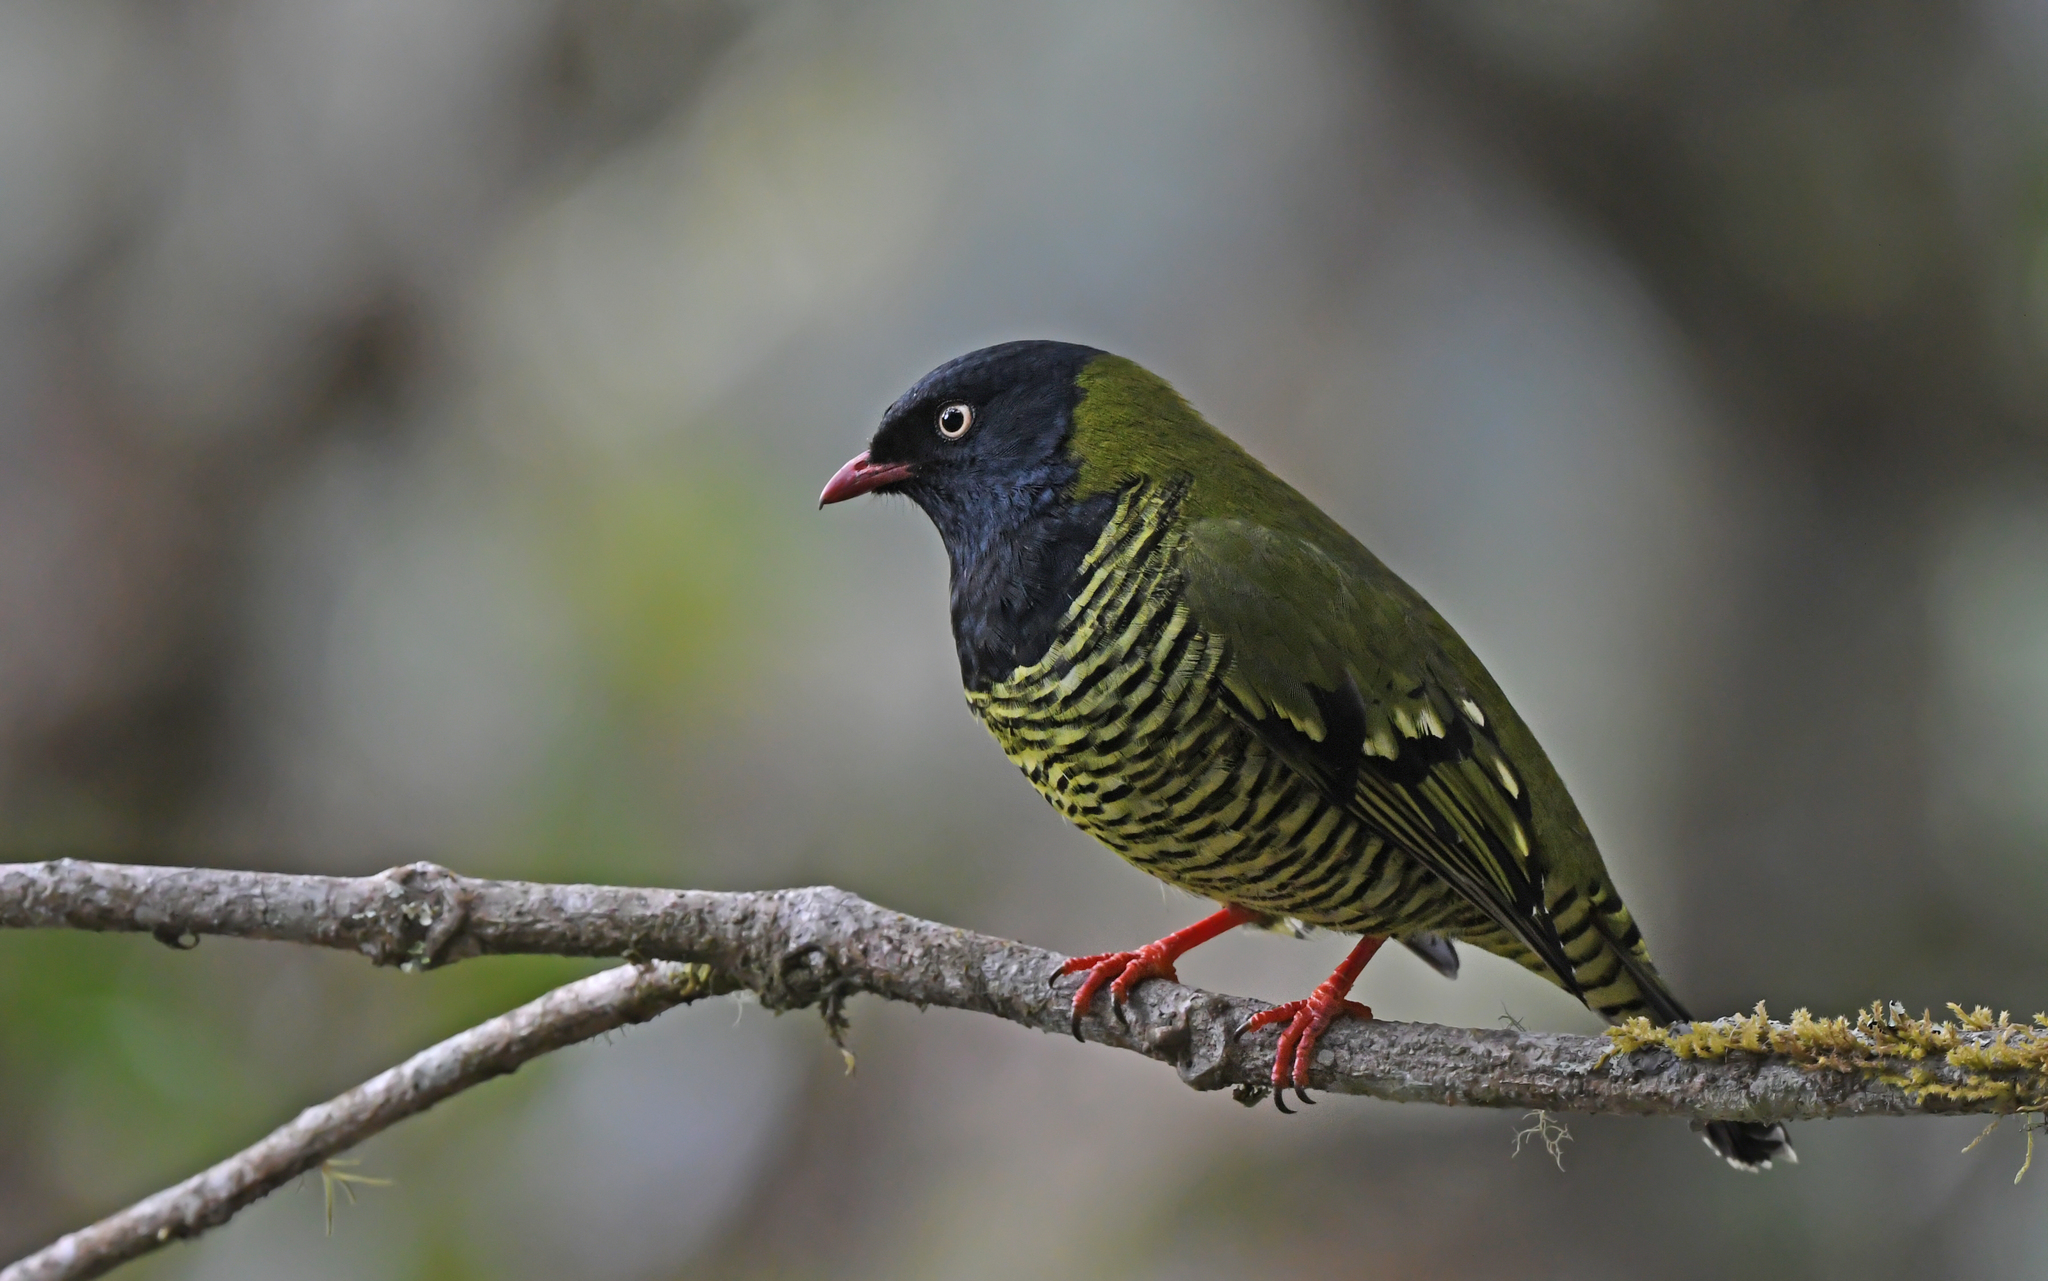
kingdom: Animalia
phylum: Chordata
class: Aves
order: Passeriformes
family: Cotingidae
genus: Pipreola
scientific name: Pipreola arcuata
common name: Barred fruiteater
